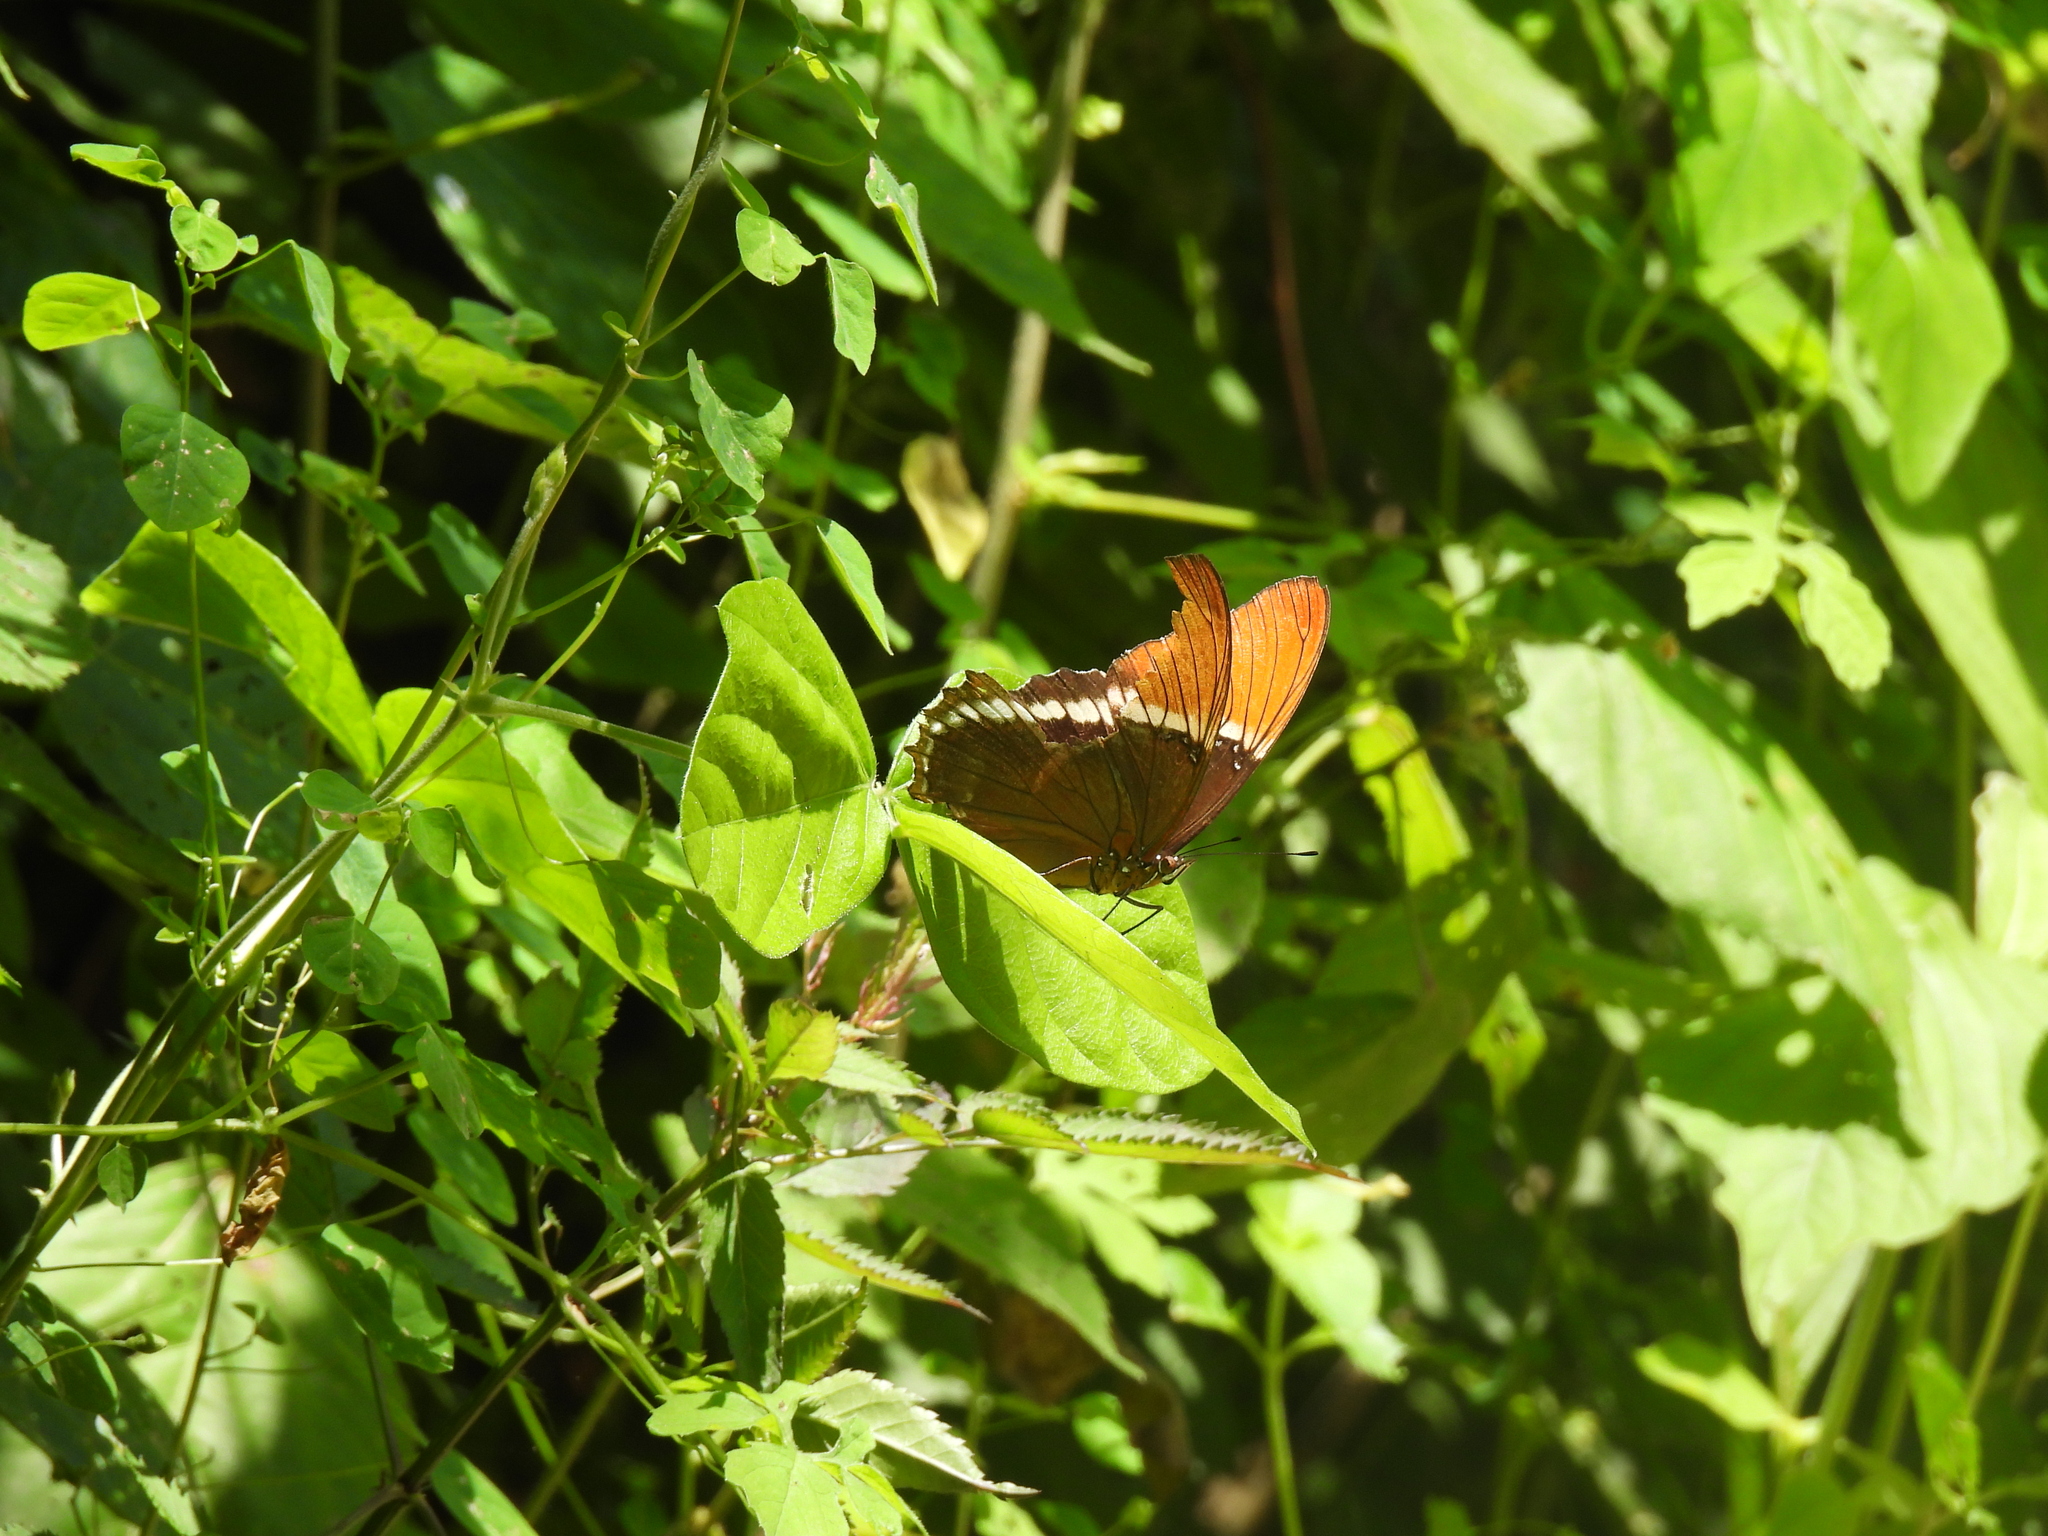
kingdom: Animalia
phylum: Arthropoda
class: Insecta
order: Lepidoptera
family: Nymphalidae
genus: Siproeta
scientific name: Siproeta epaphus
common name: Rusty-tipped page
